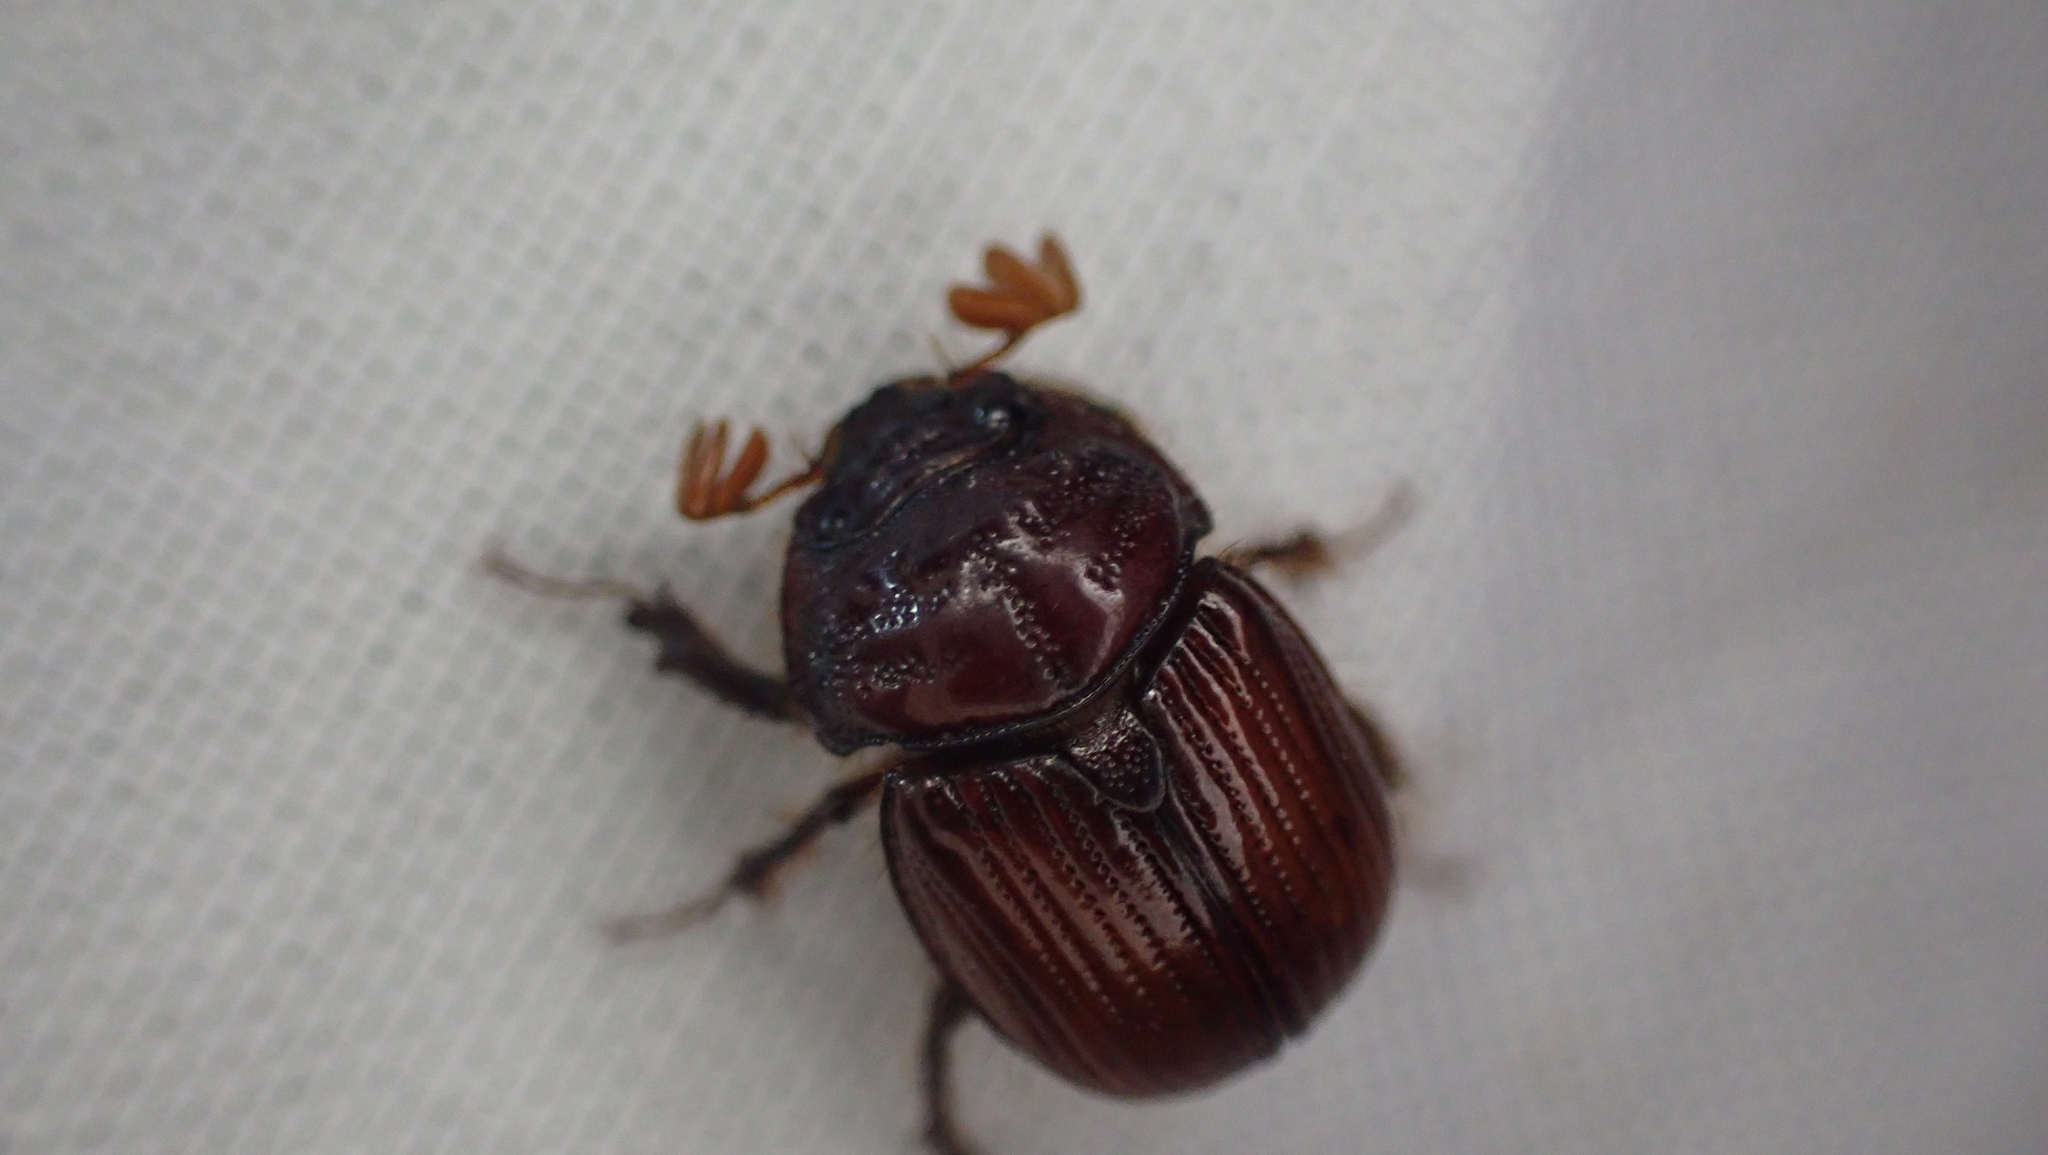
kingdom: Animalia
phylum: Arthropoda
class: Insecta
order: Coleoptera
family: Geotrupidae
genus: Bolbelasmus
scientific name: Bolbelasmus lazarus
